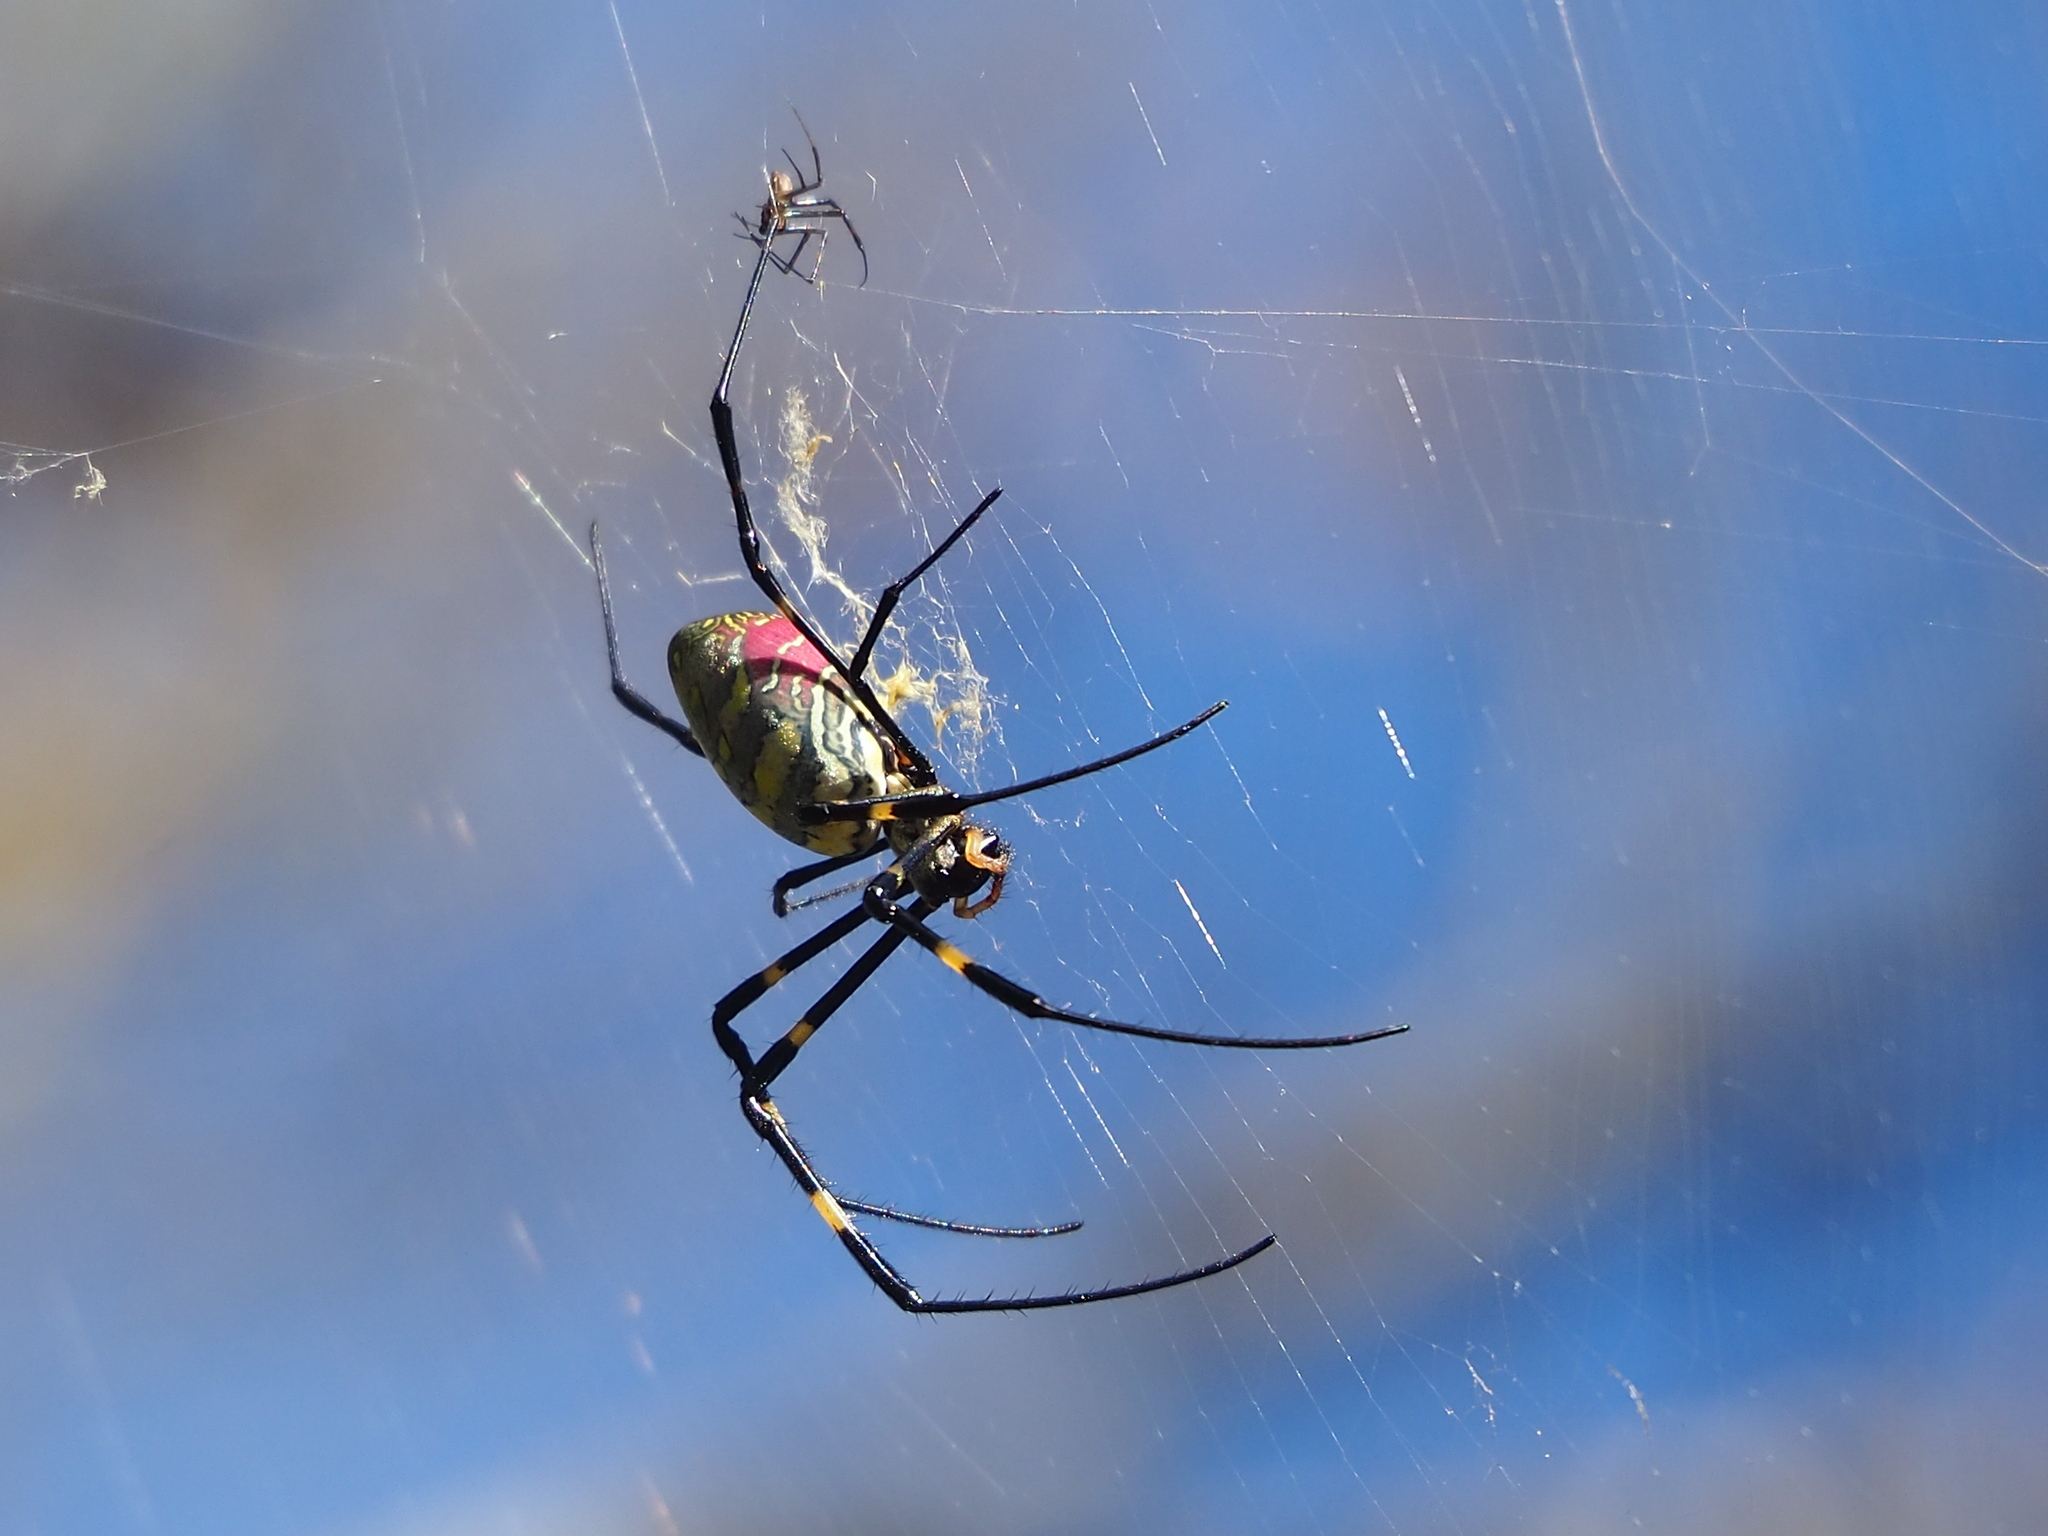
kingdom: Animalia
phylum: Arthropoda
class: Arachnida
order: Araneae
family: Araneidae
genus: Trichonephila
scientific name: Trichonephila clavata
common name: Jorō spider
